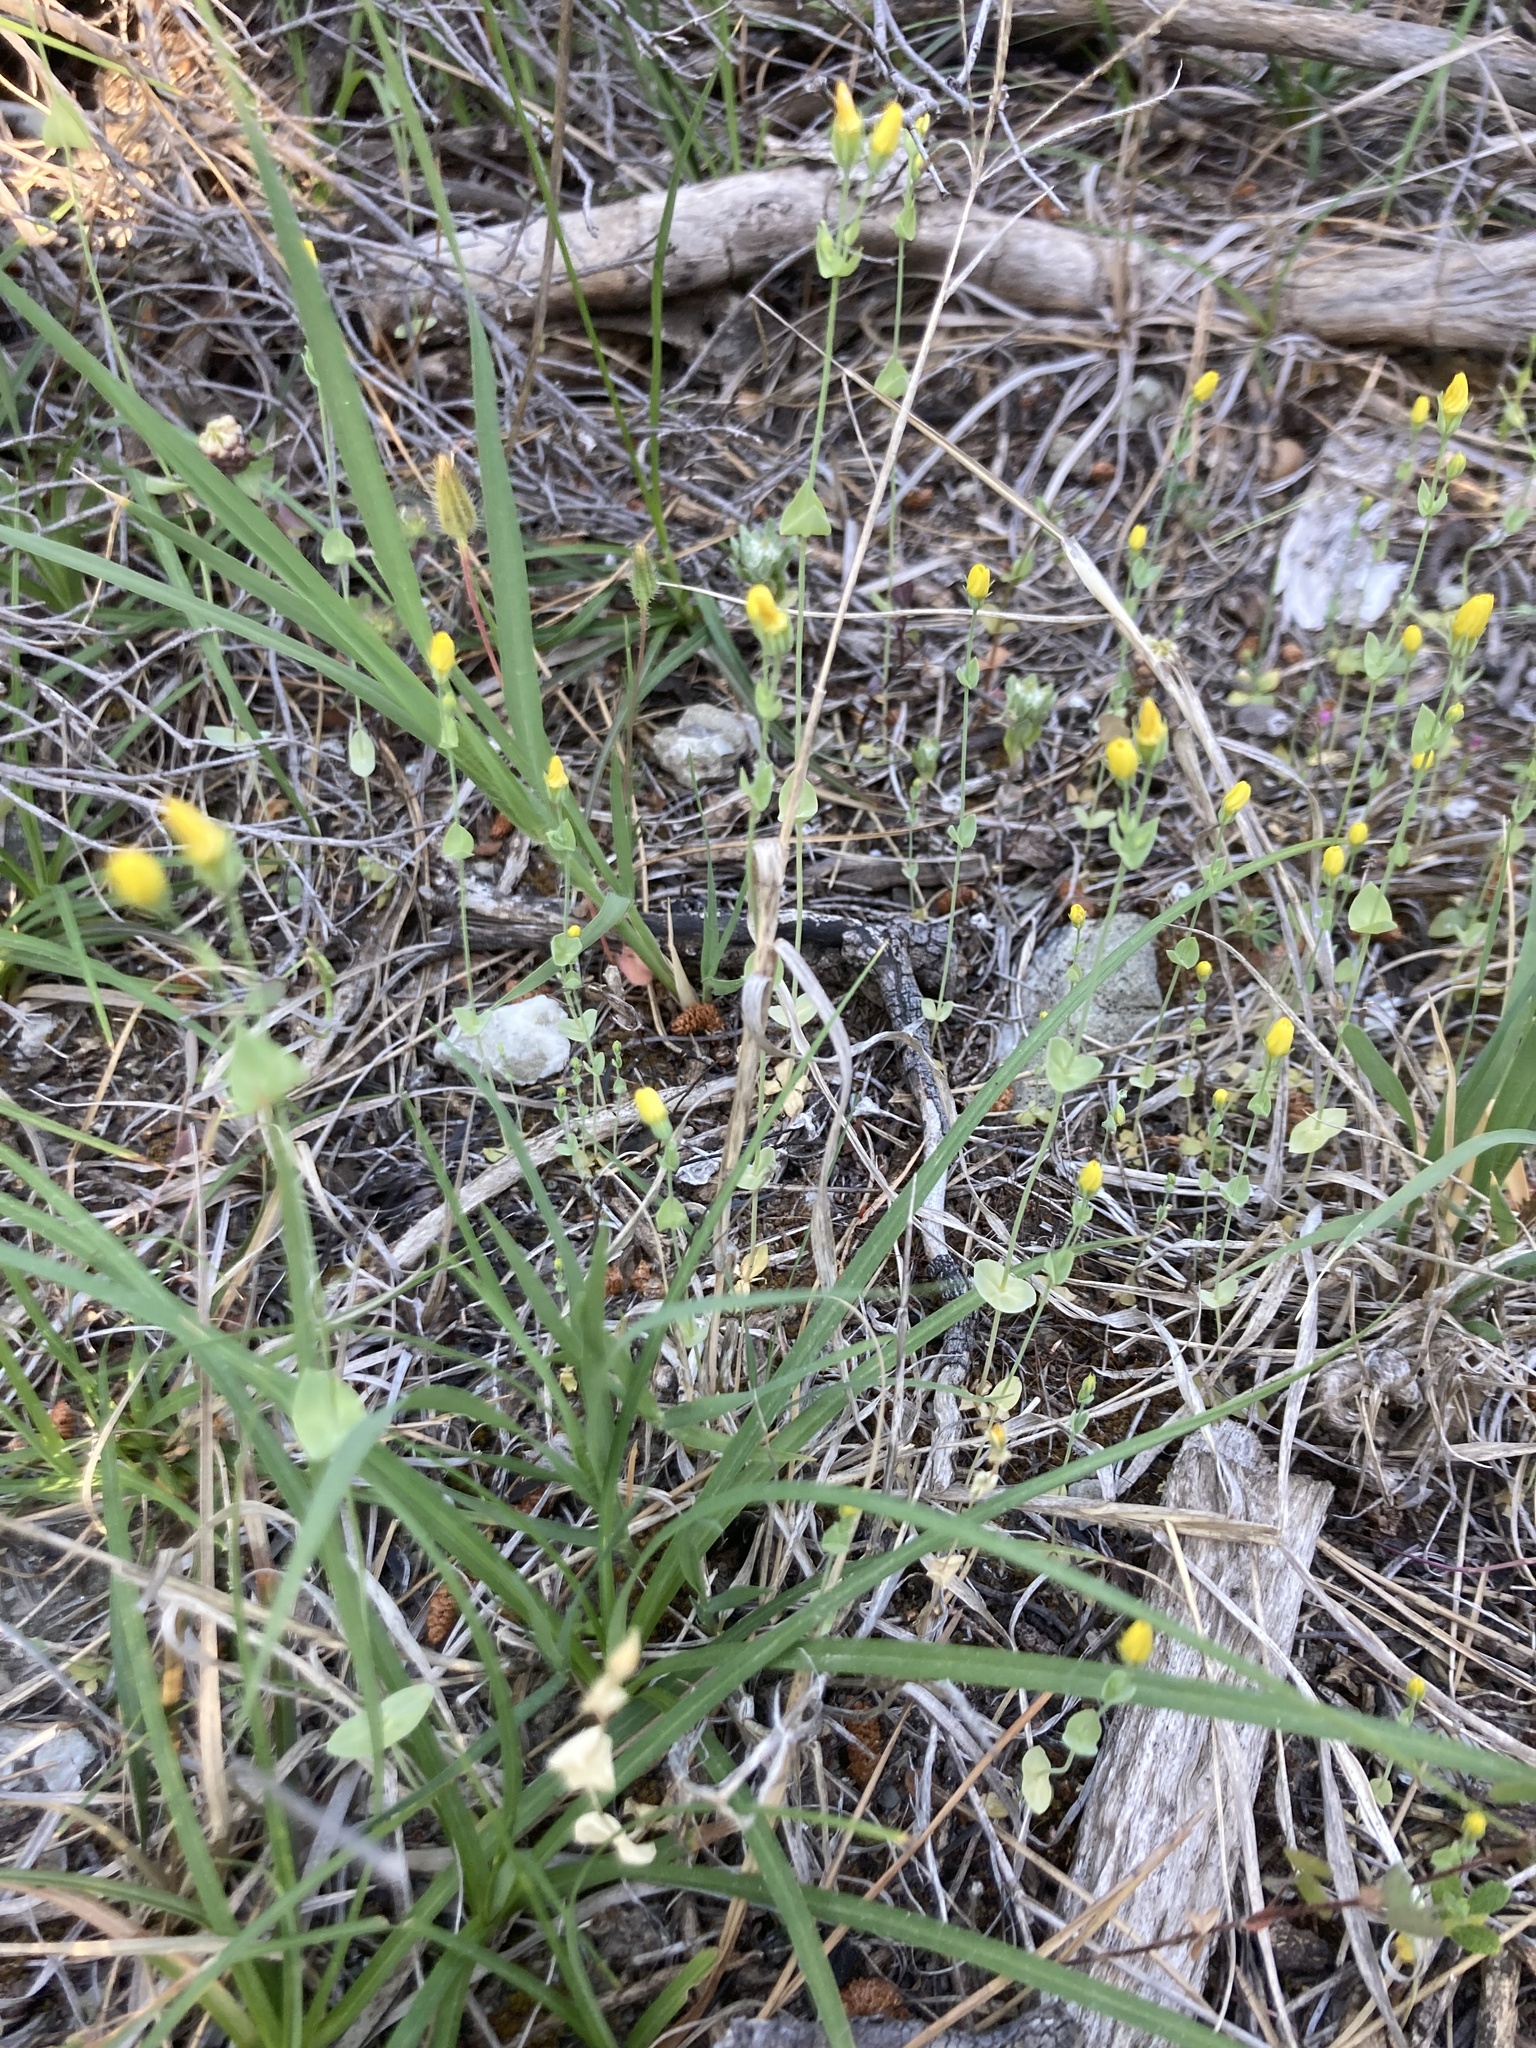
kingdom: Plantae
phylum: Tracheophyta
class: Magnoliopsida
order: Gentianales
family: Gentianaceae
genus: Blackstonia
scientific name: Blackstonia perfoliata
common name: Yellow-wort
